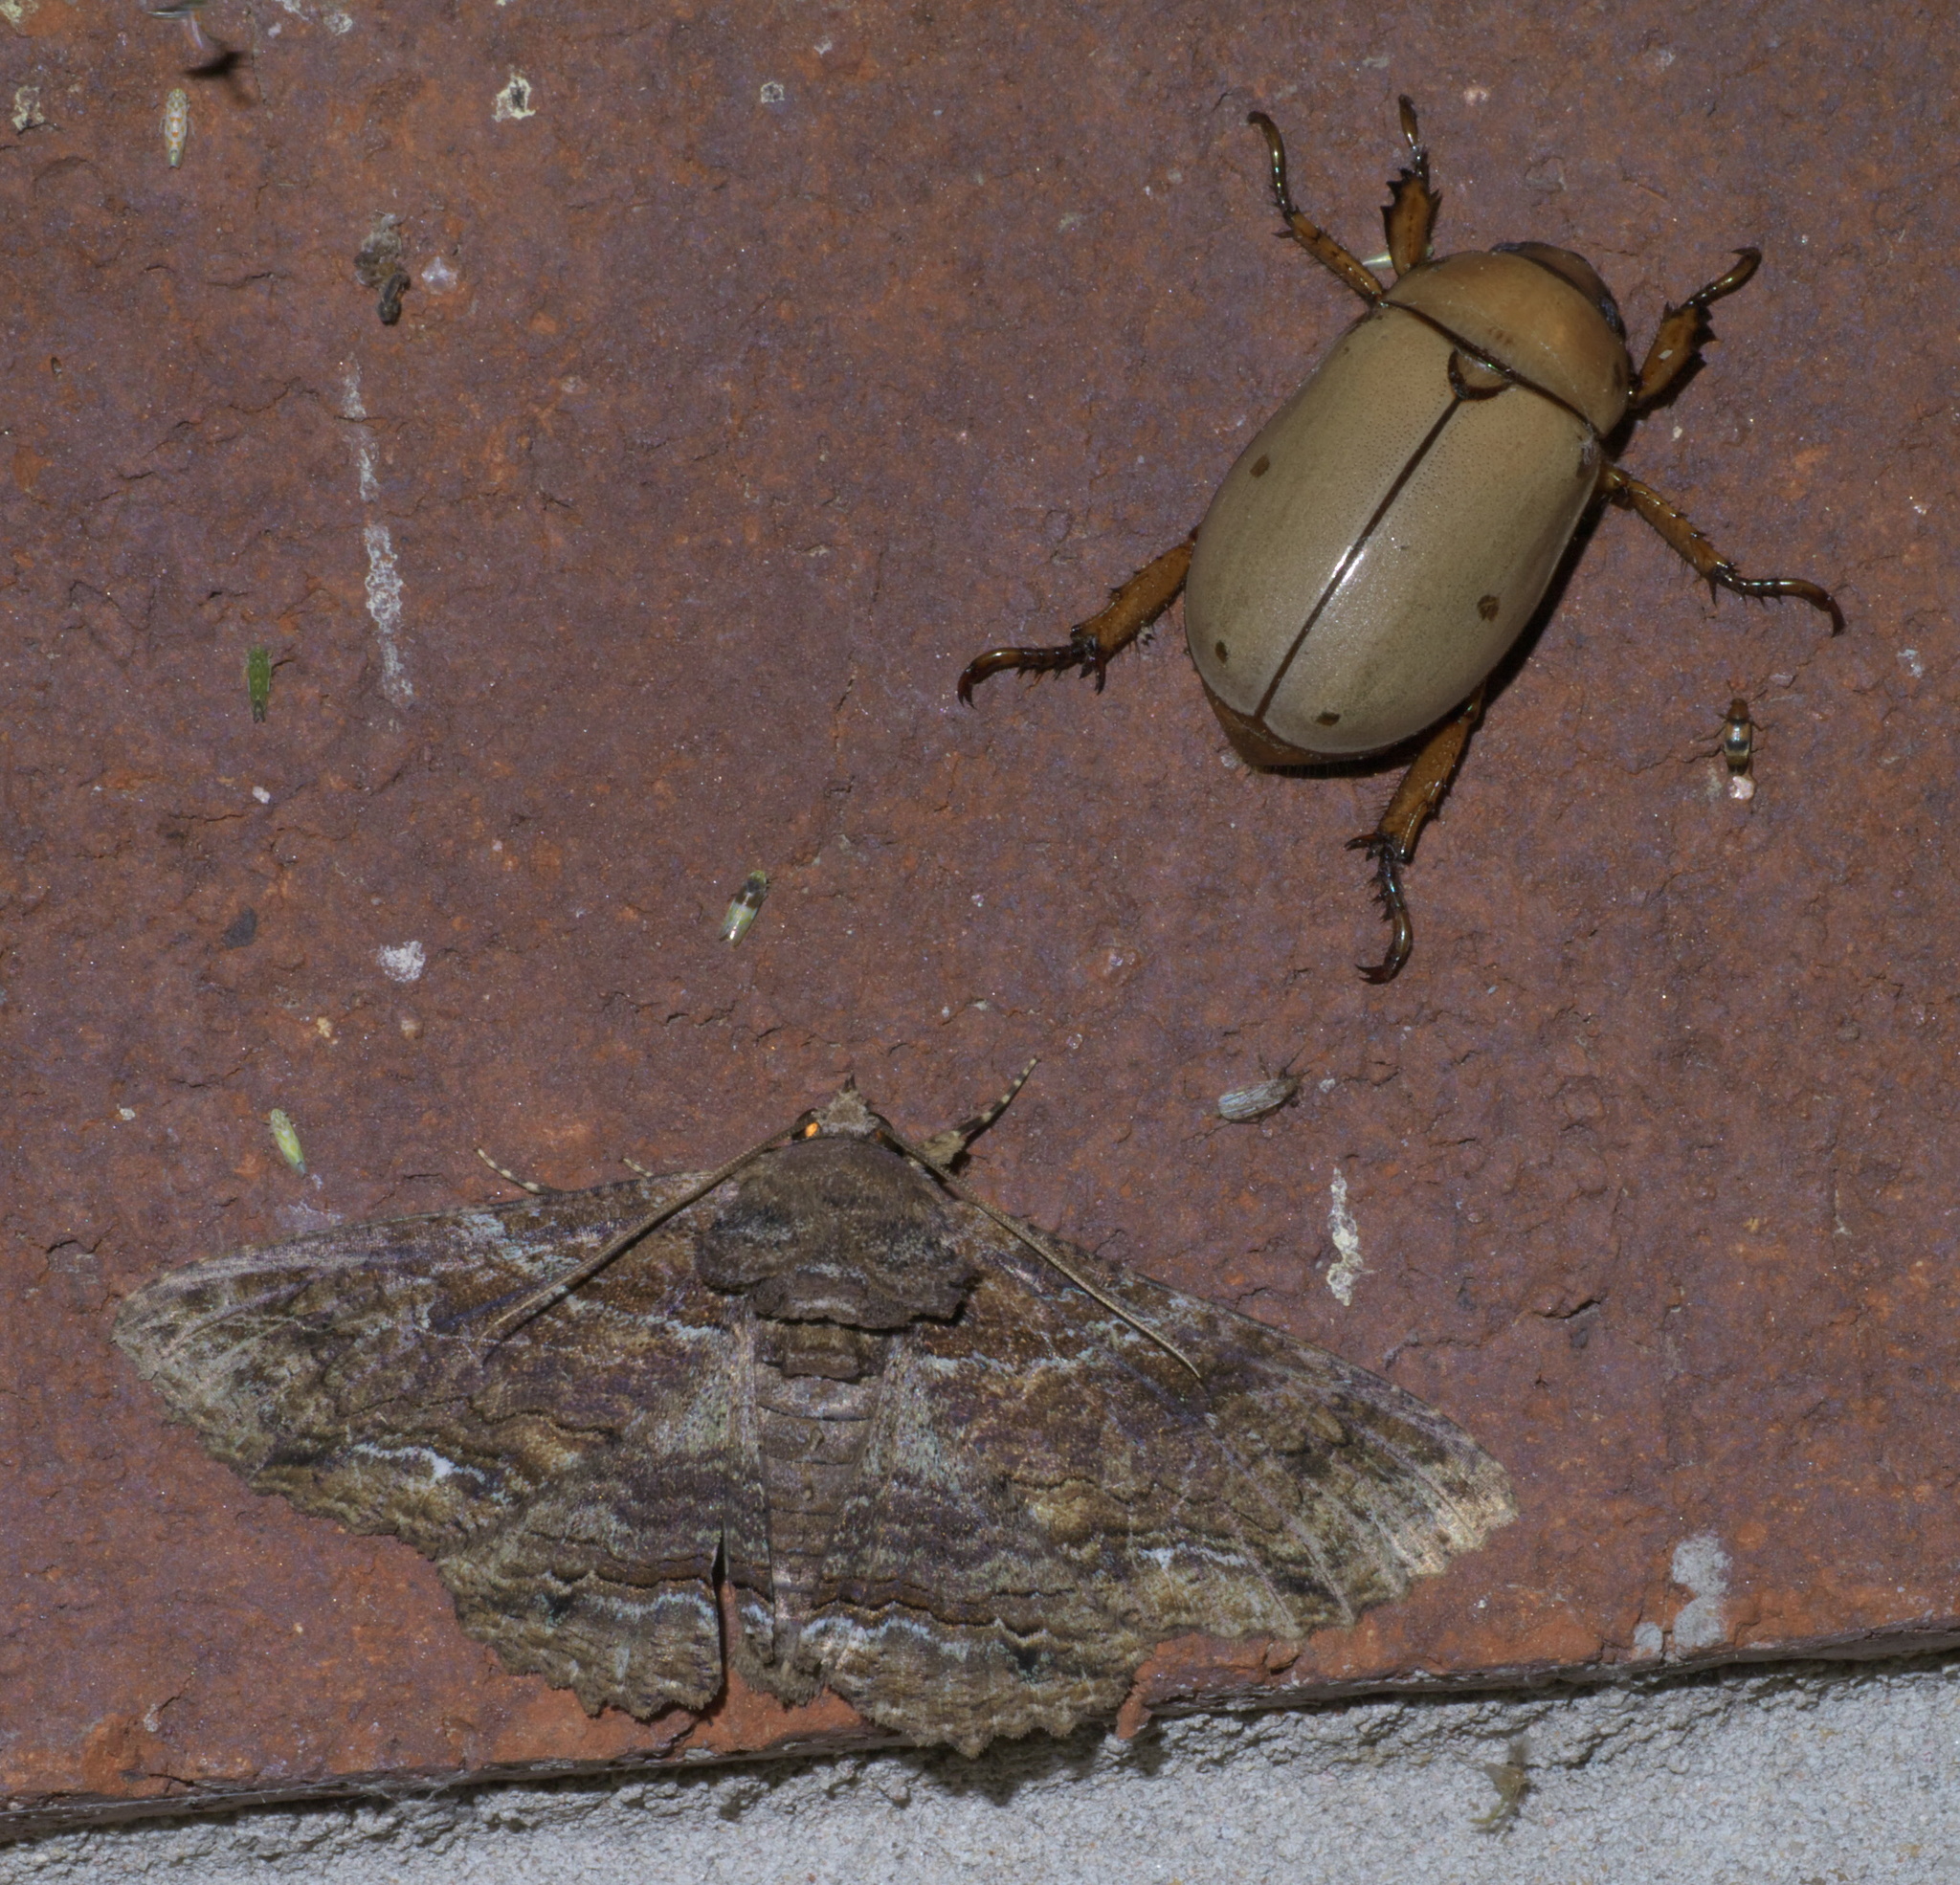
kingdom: Animalia
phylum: Arthropoda
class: Insecta
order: Coleoptera
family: Scarabaeidae
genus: Pelidnota
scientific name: Pelidnota punctata
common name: Grapevine beetle
